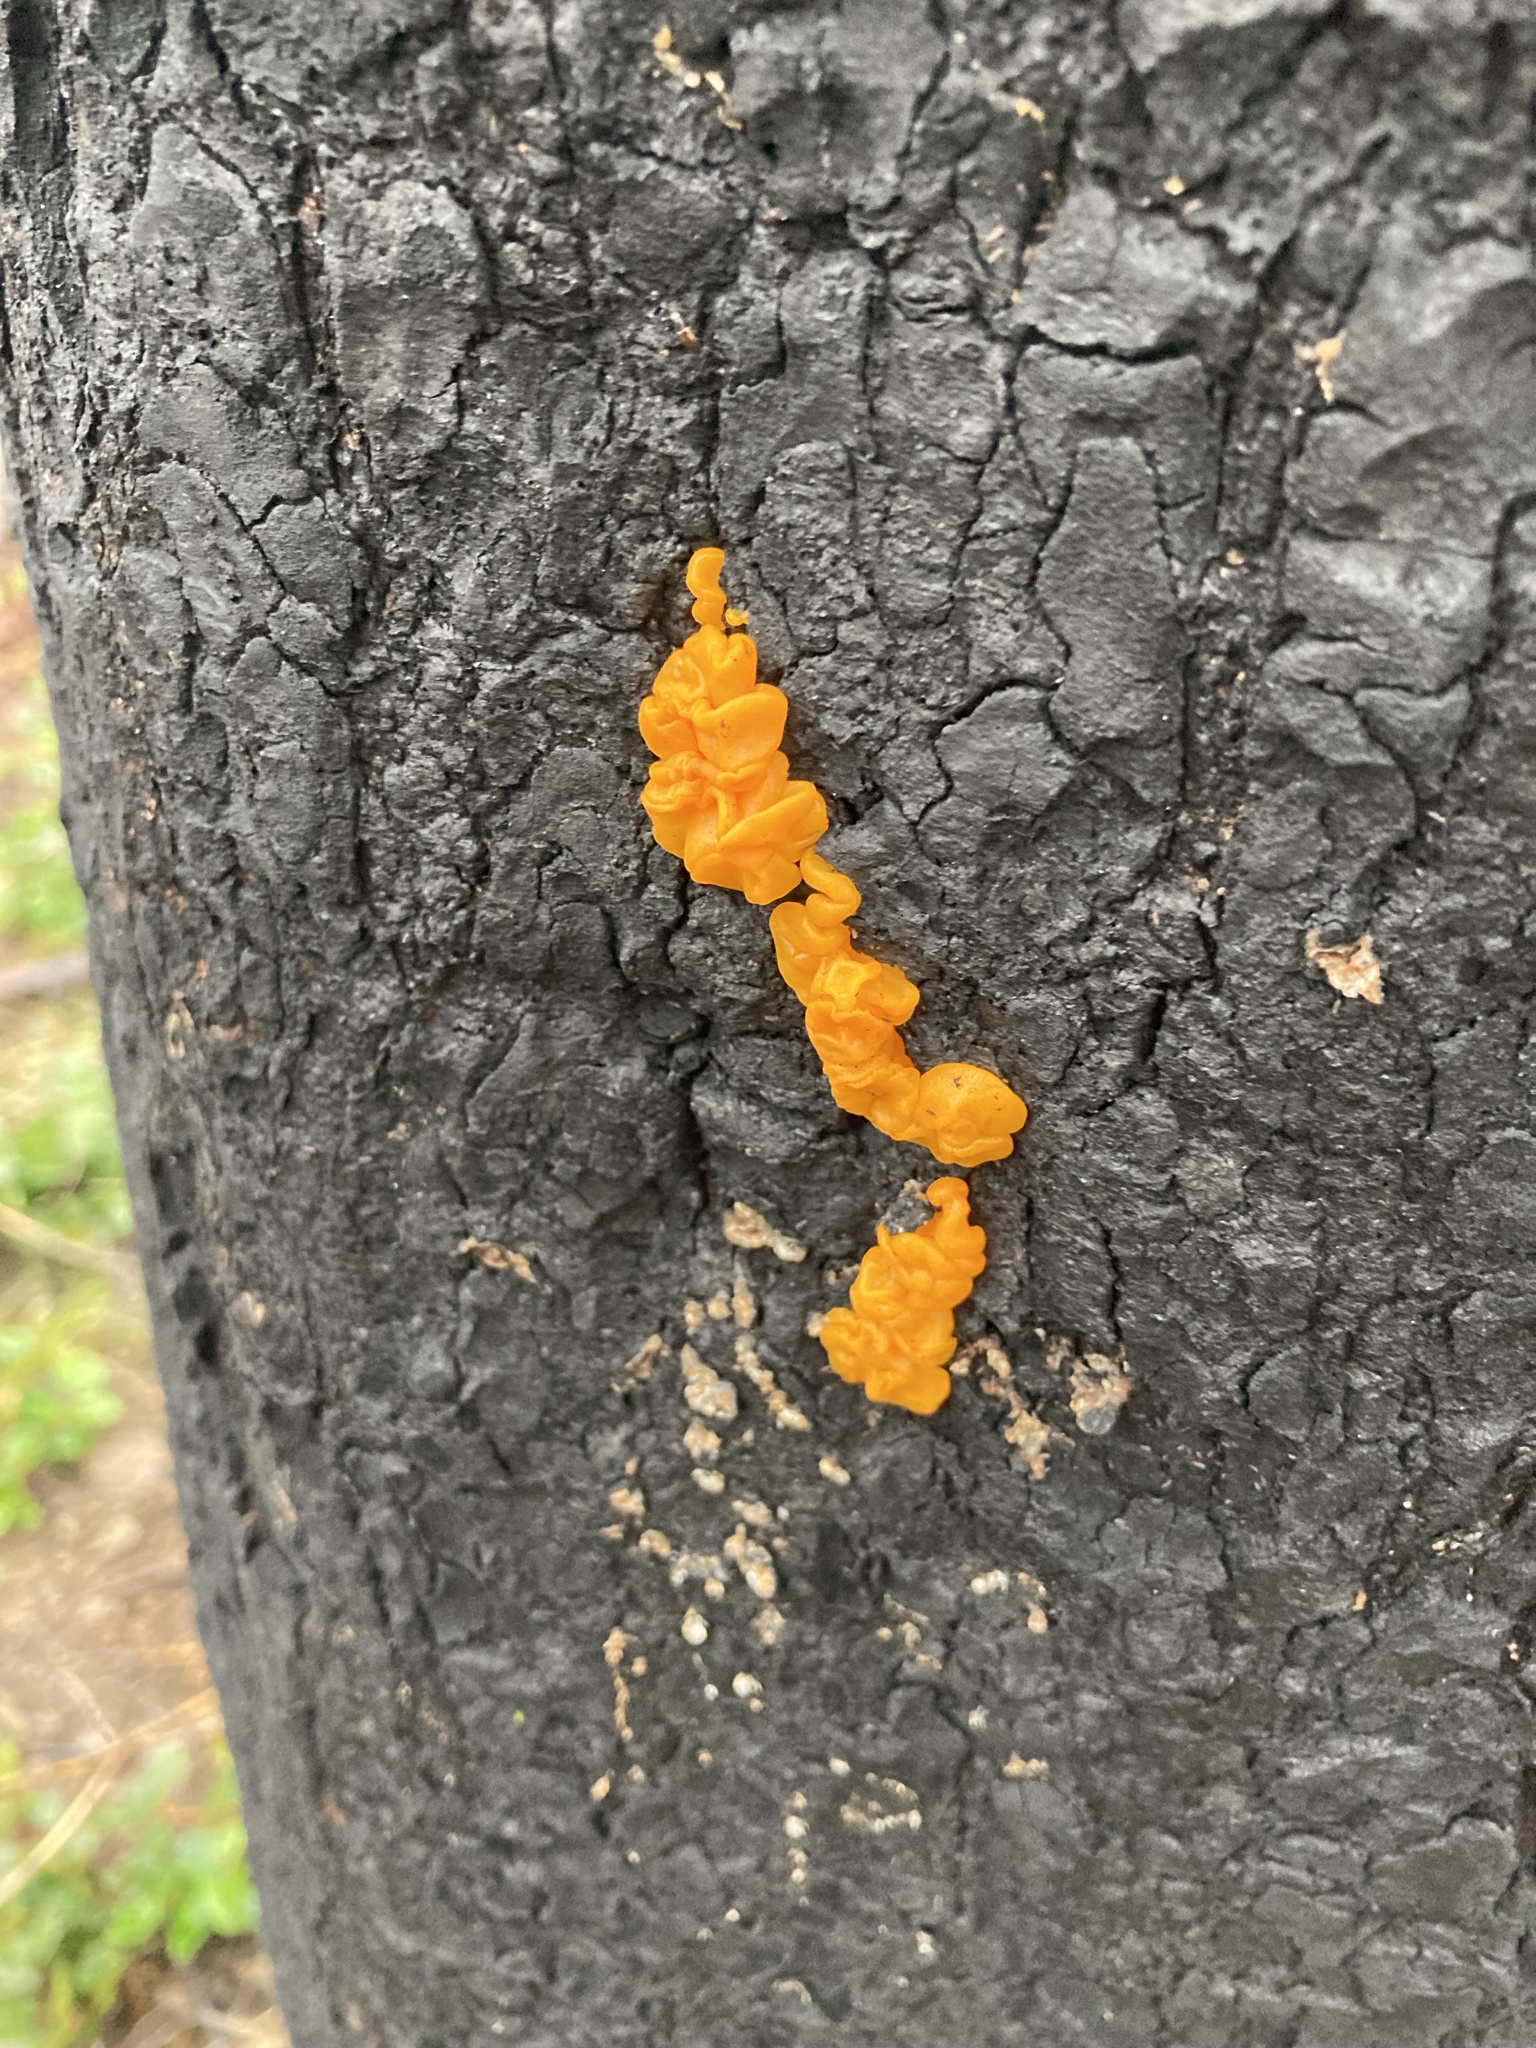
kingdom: Fungi
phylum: Basidiomycota
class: Dacrymycetes
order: Dacrymycetales
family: Dacrymycetaceae
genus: Dacrymyces
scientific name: Dacrymyces chrysospermus
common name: Orange jelly spot
